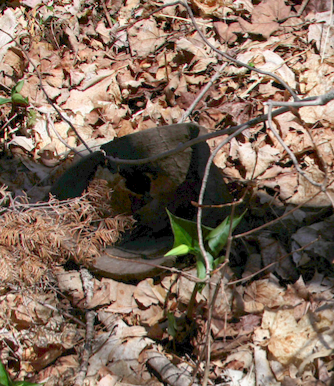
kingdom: Plantae
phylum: Tracheophyta
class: Liliopsida
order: Liliales
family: Melanthiaceae
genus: Trillium
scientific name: Trillium erectum
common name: Purple trillium
